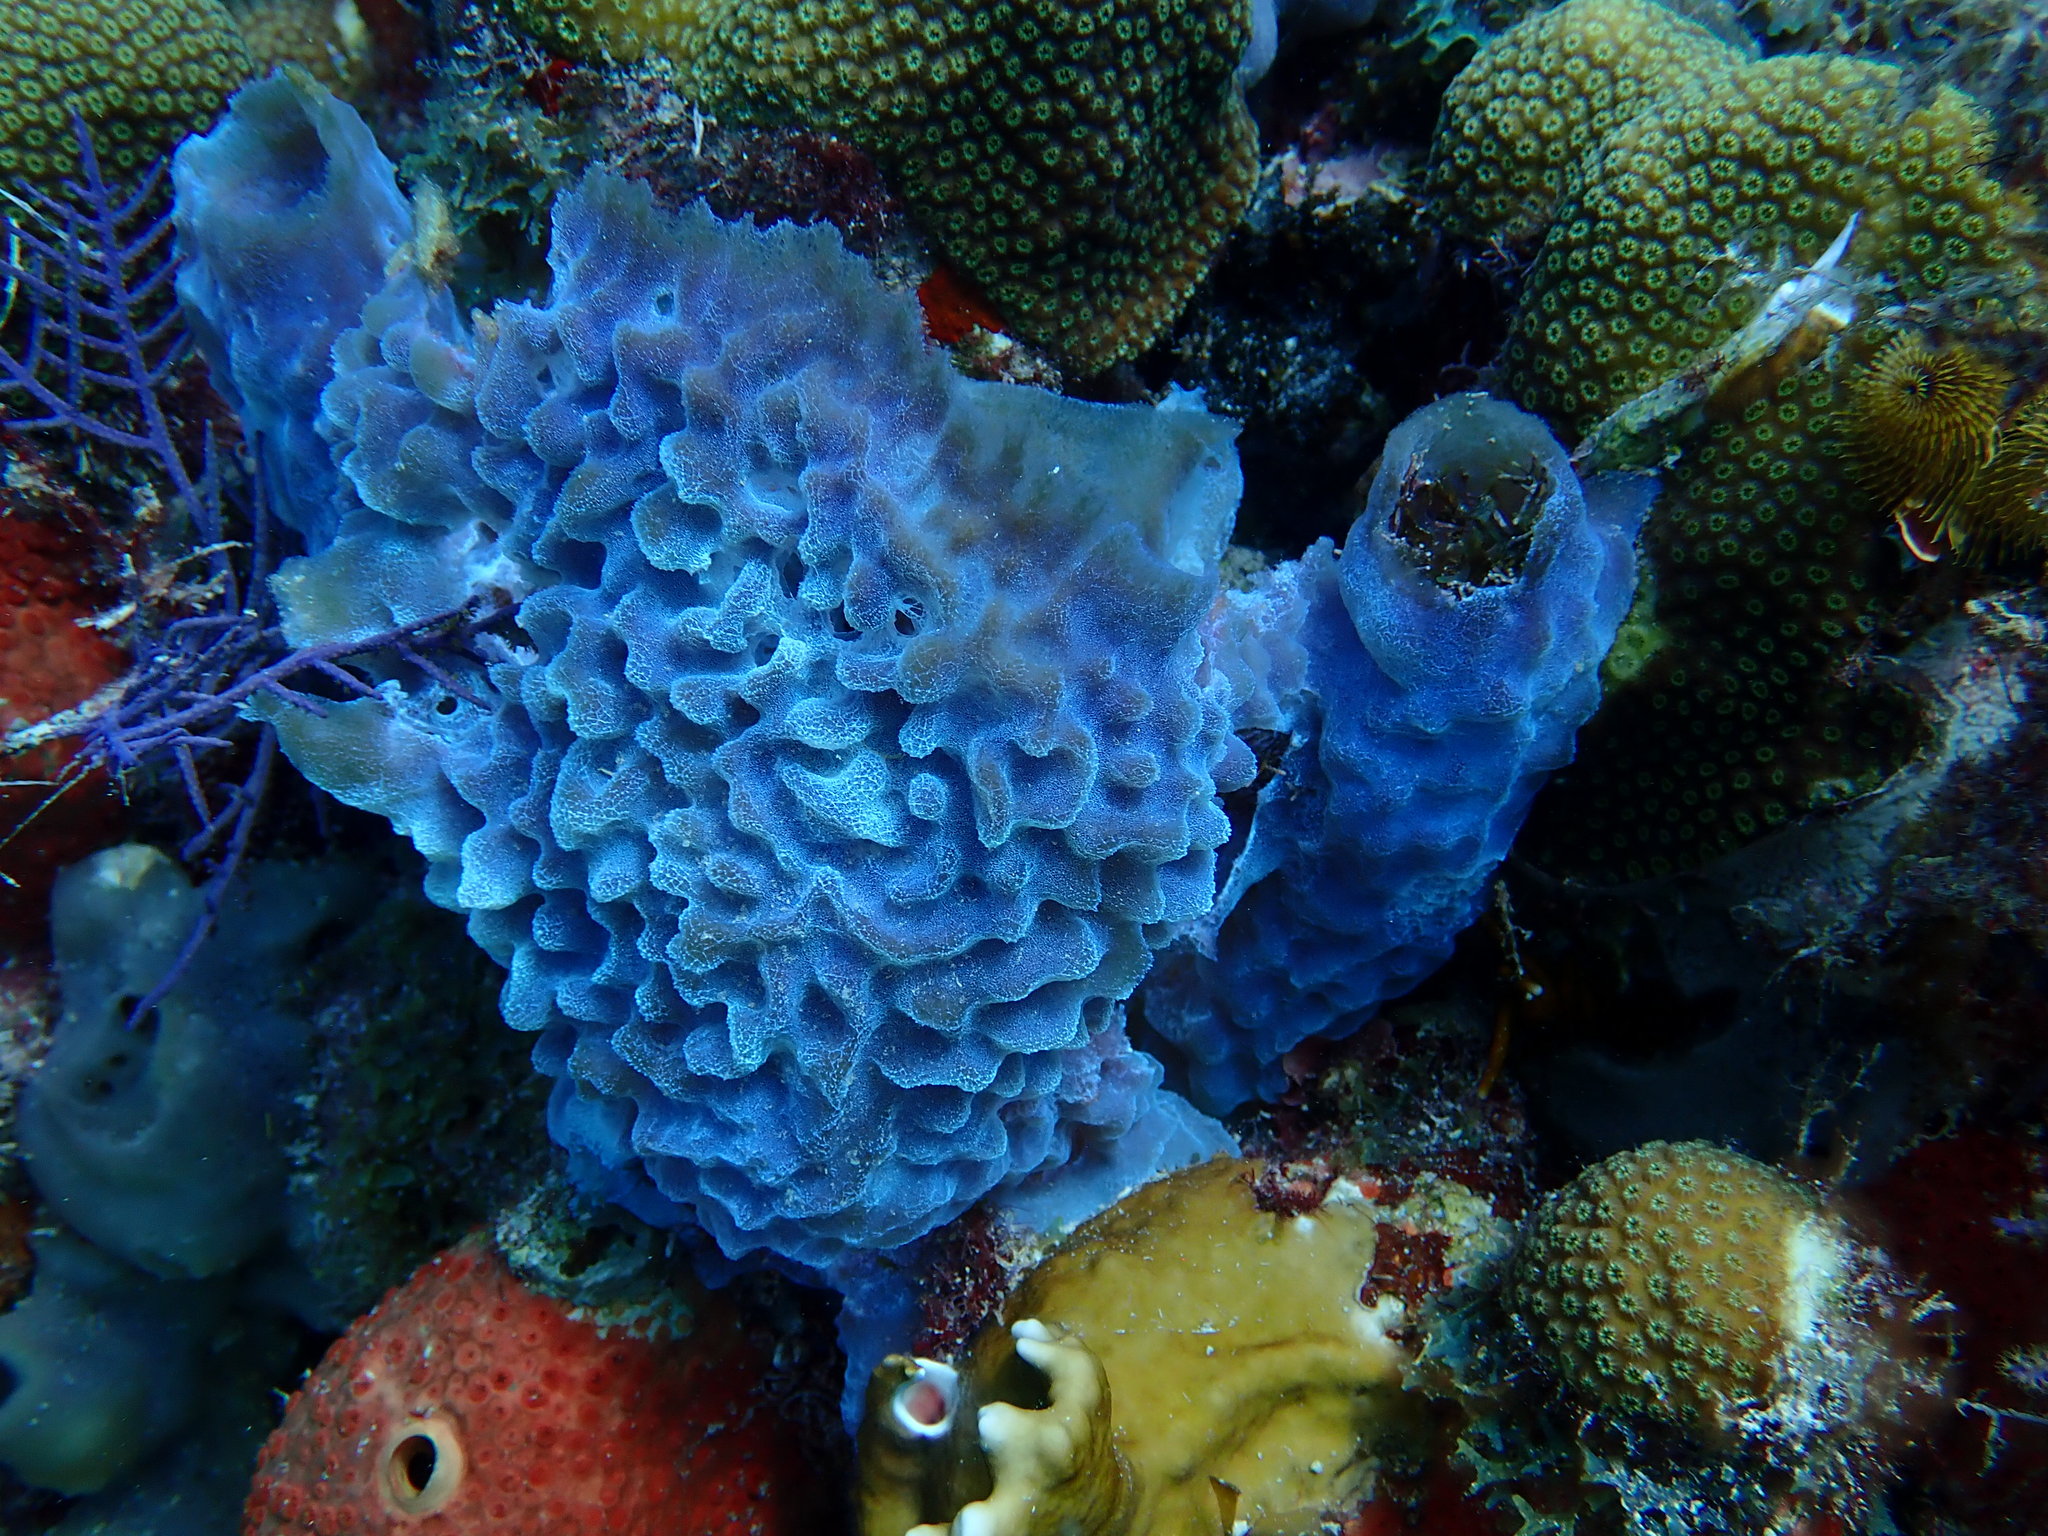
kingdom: Animalia
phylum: Porifera
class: Demospongiae
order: Haplosclerida
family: Callyspongiidae
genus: Callyspongia
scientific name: Callyspongia plicifera
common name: Azure vase sponge
